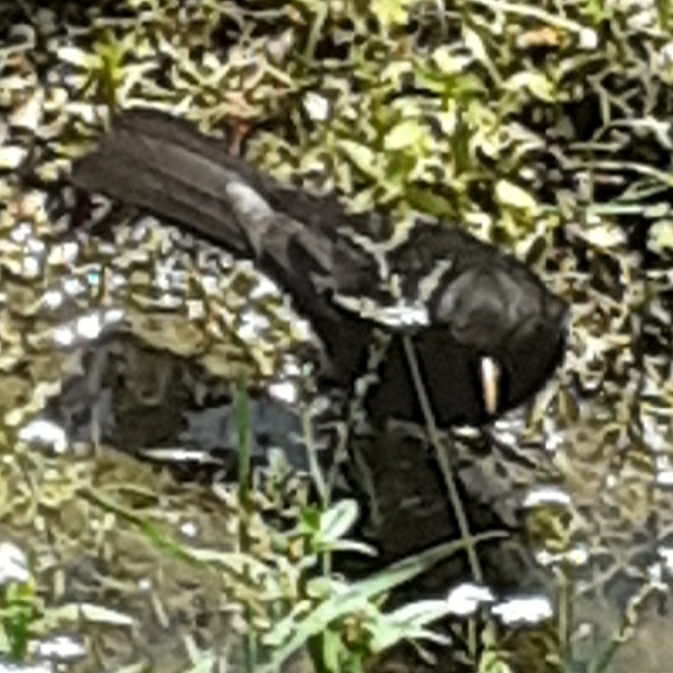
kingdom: Animalia
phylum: Chordata
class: Aves
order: Passeriformes
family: Turdidae
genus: Turdus
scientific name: Turdus merula
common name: Common blackbird
